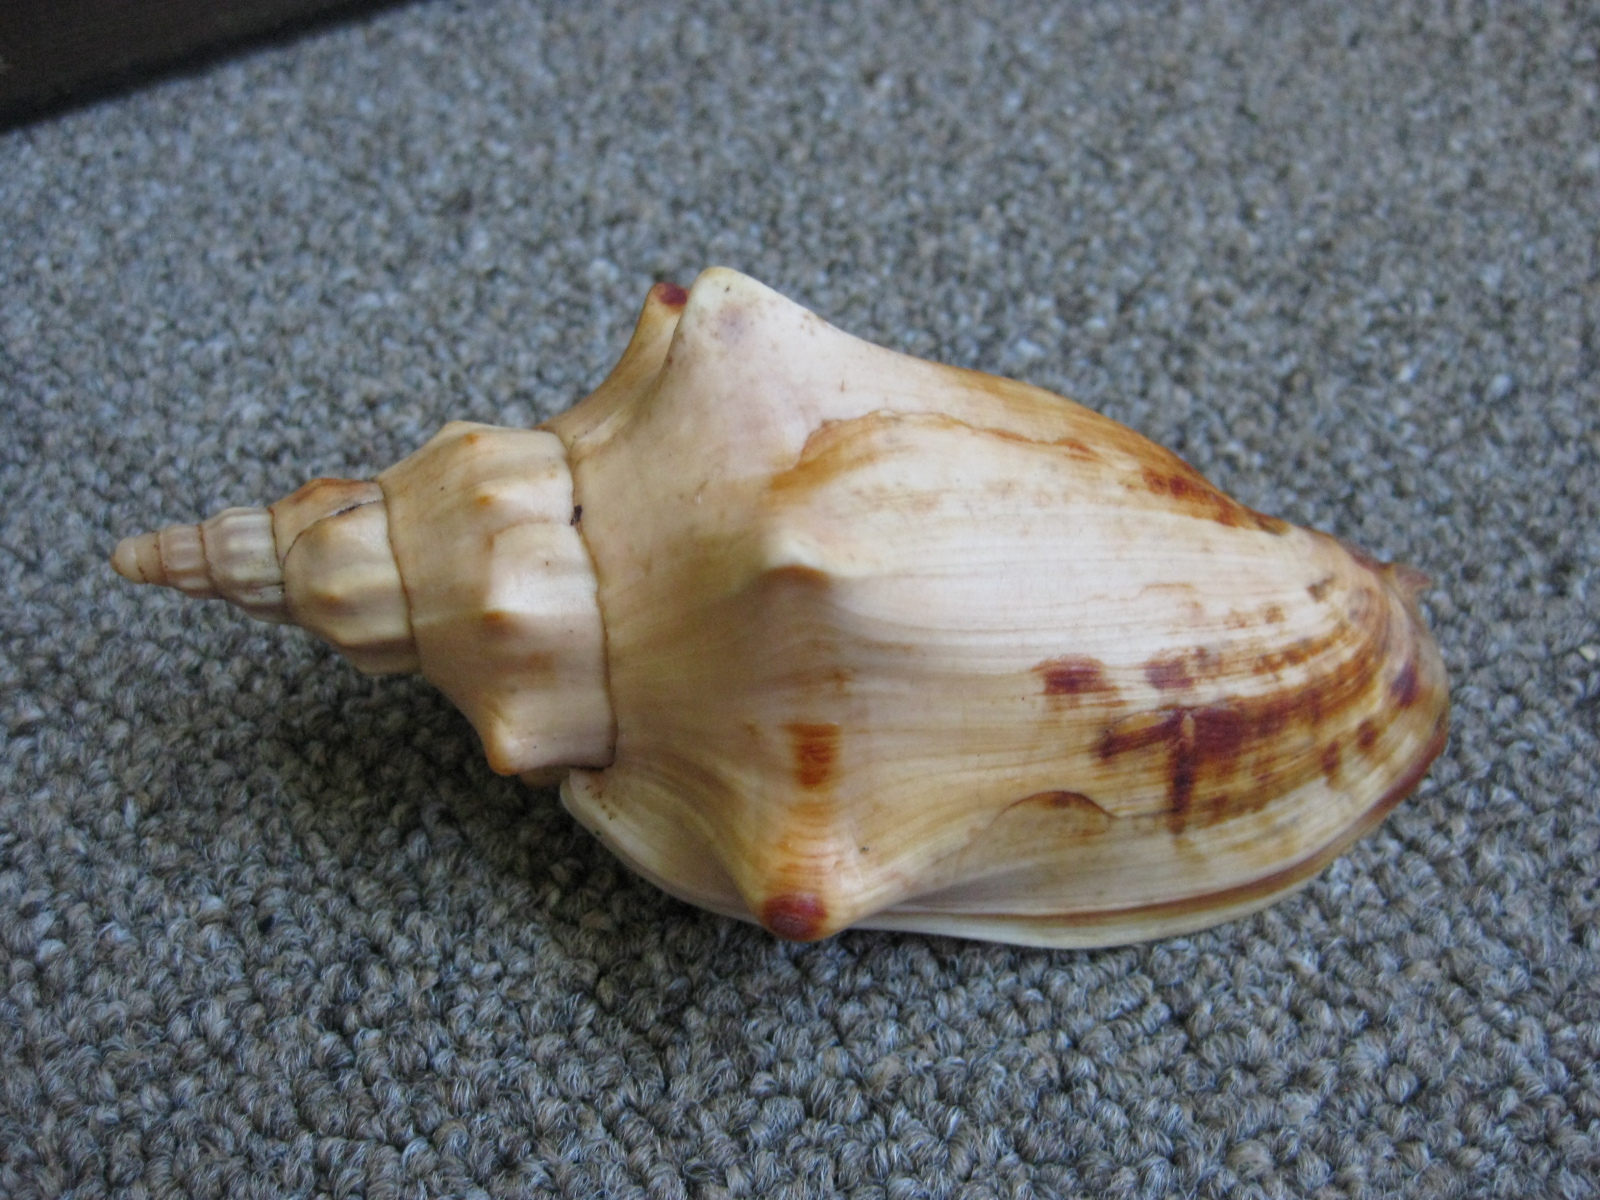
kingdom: Animalia
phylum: Mollusca
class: Gastropoda
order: Neogastropoda
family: Volutidae
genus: Alcithoe
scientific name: Alcithoe arabica
